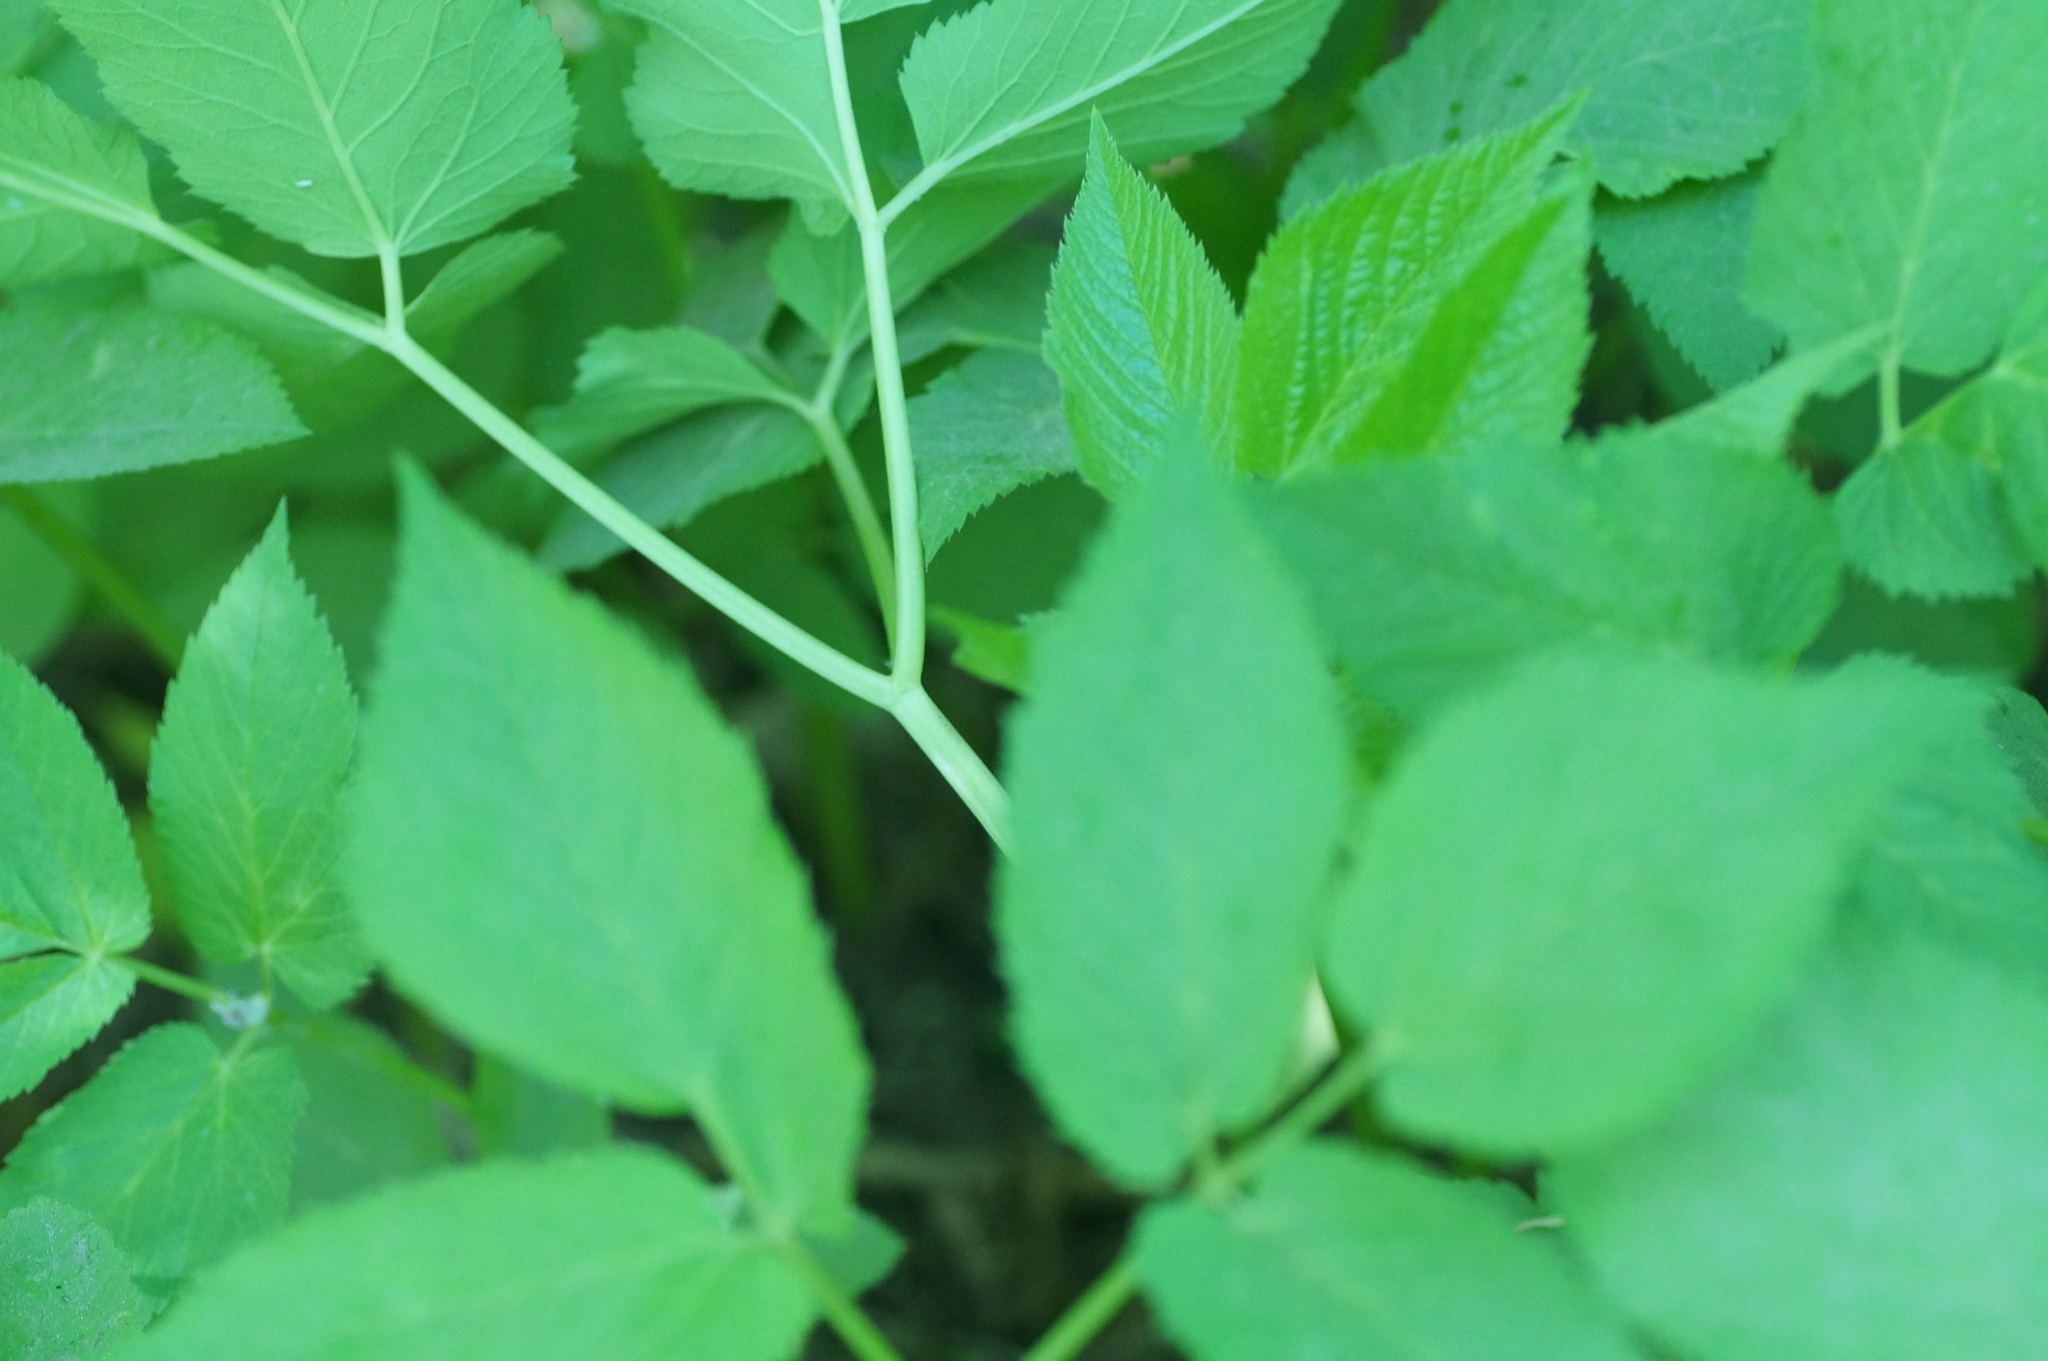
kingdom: Plantae
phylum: Tracheophyta
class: Magnoliopsida
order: Apiales
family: Apiaceae
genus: Aegopodium
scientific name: Aegopodium podagraria
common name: Ground-elder
